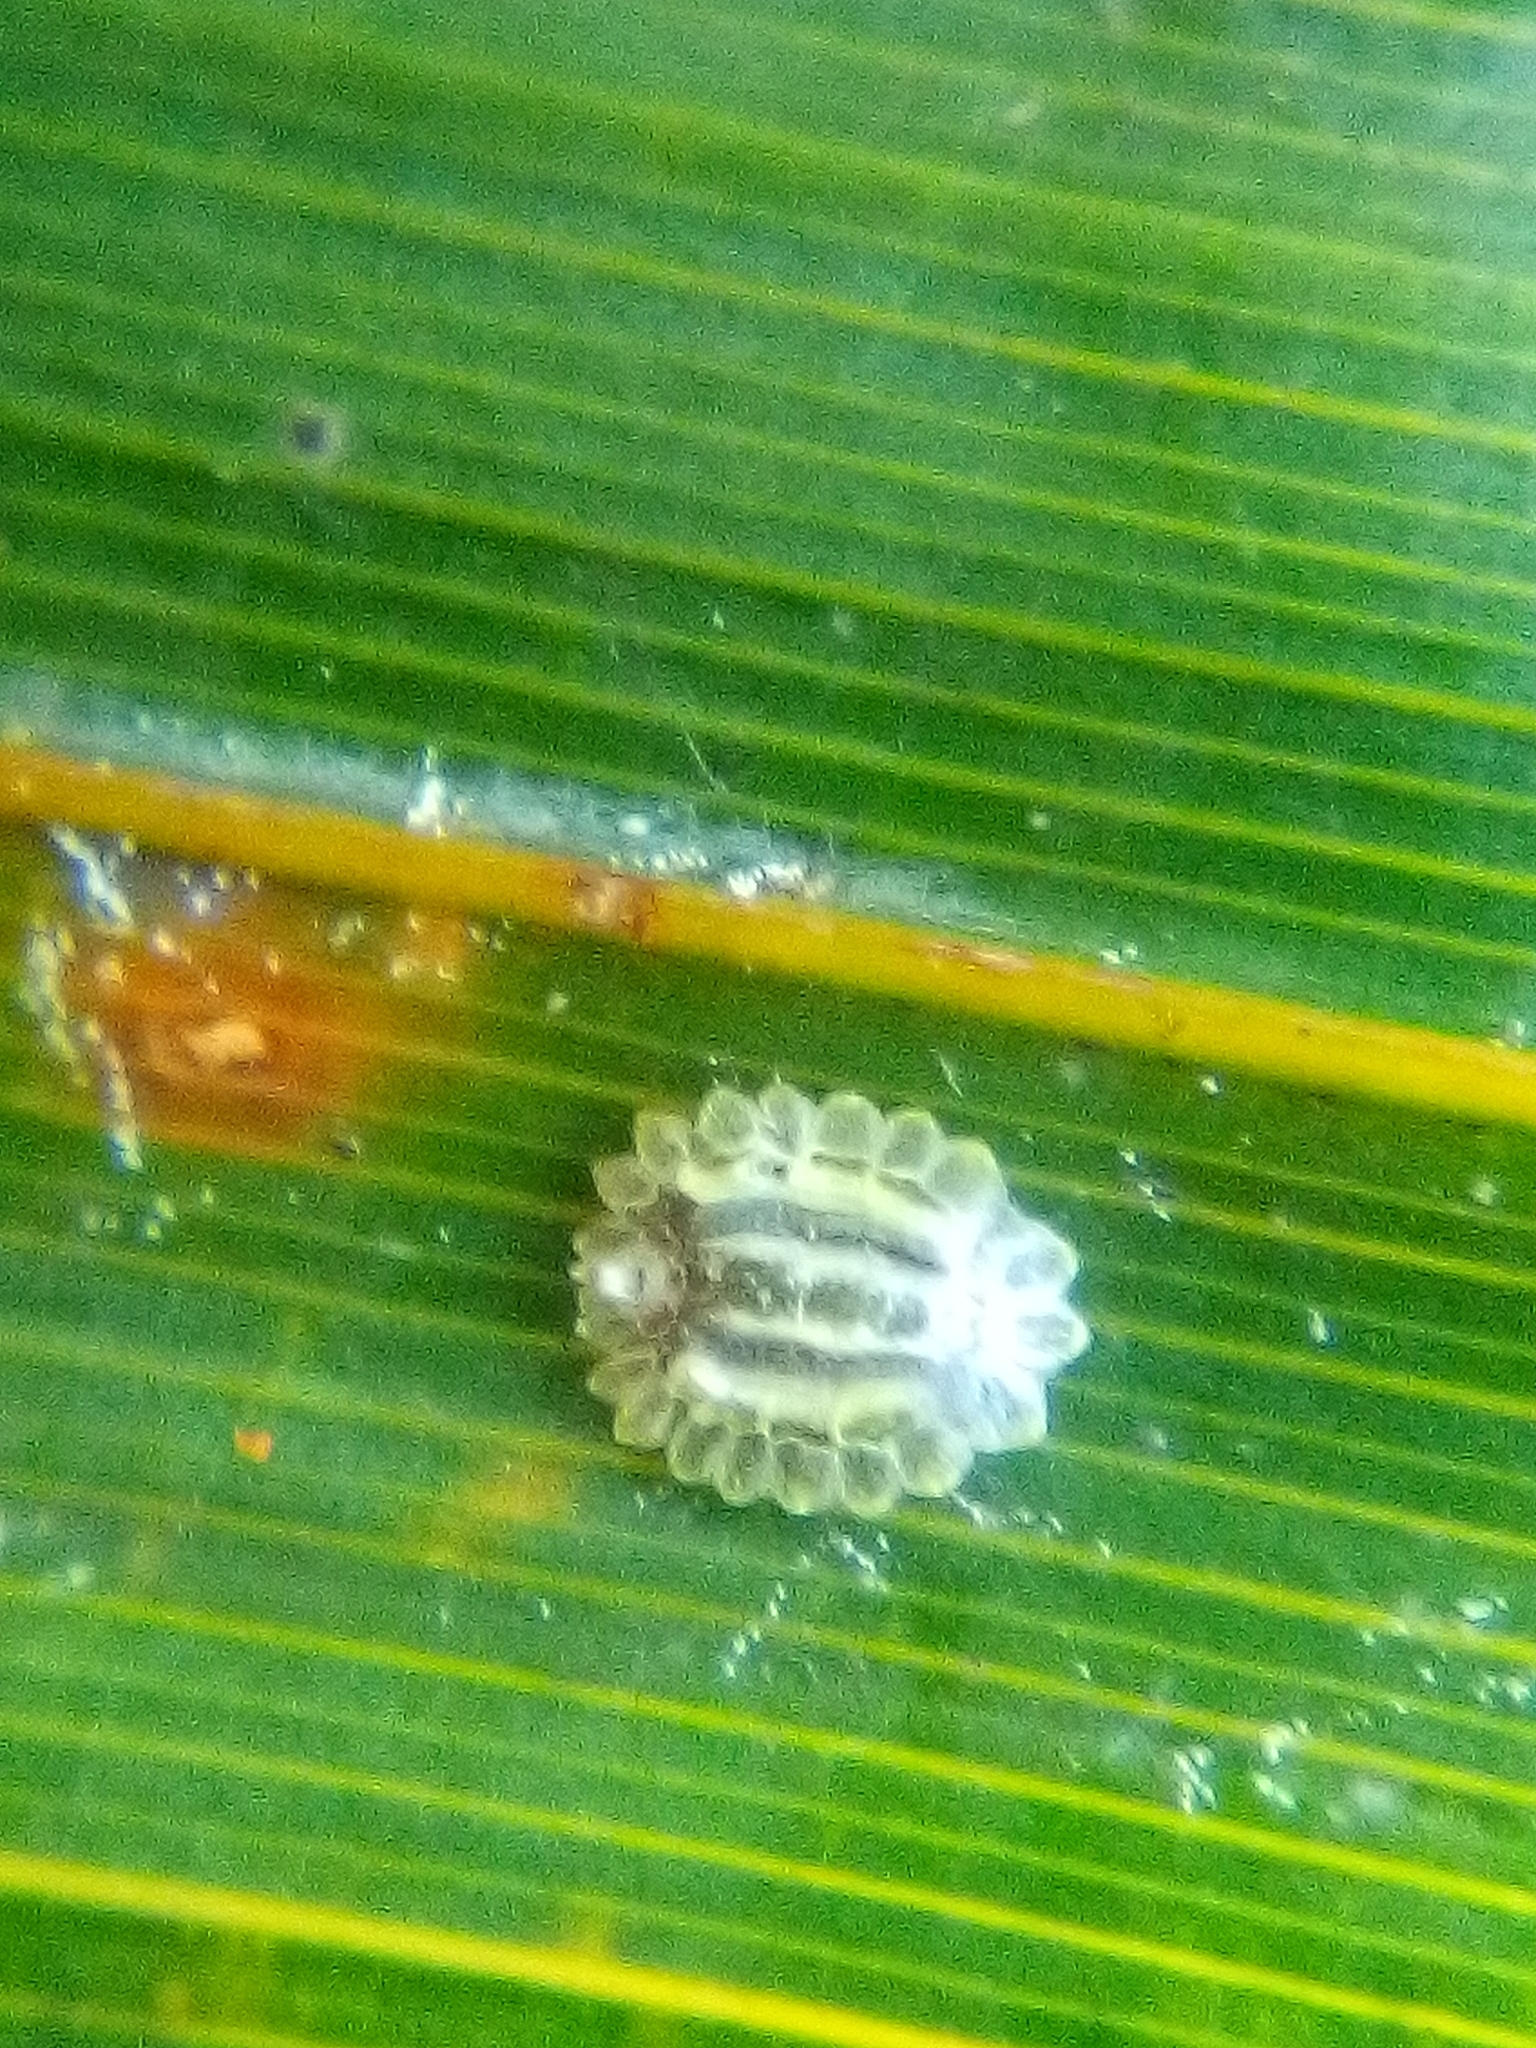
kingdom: Animalia
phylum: Arthropoda
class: Insecta
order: Hemiptera
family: Coccidae
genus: Plumichiton
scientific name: Plumichiton nikau
